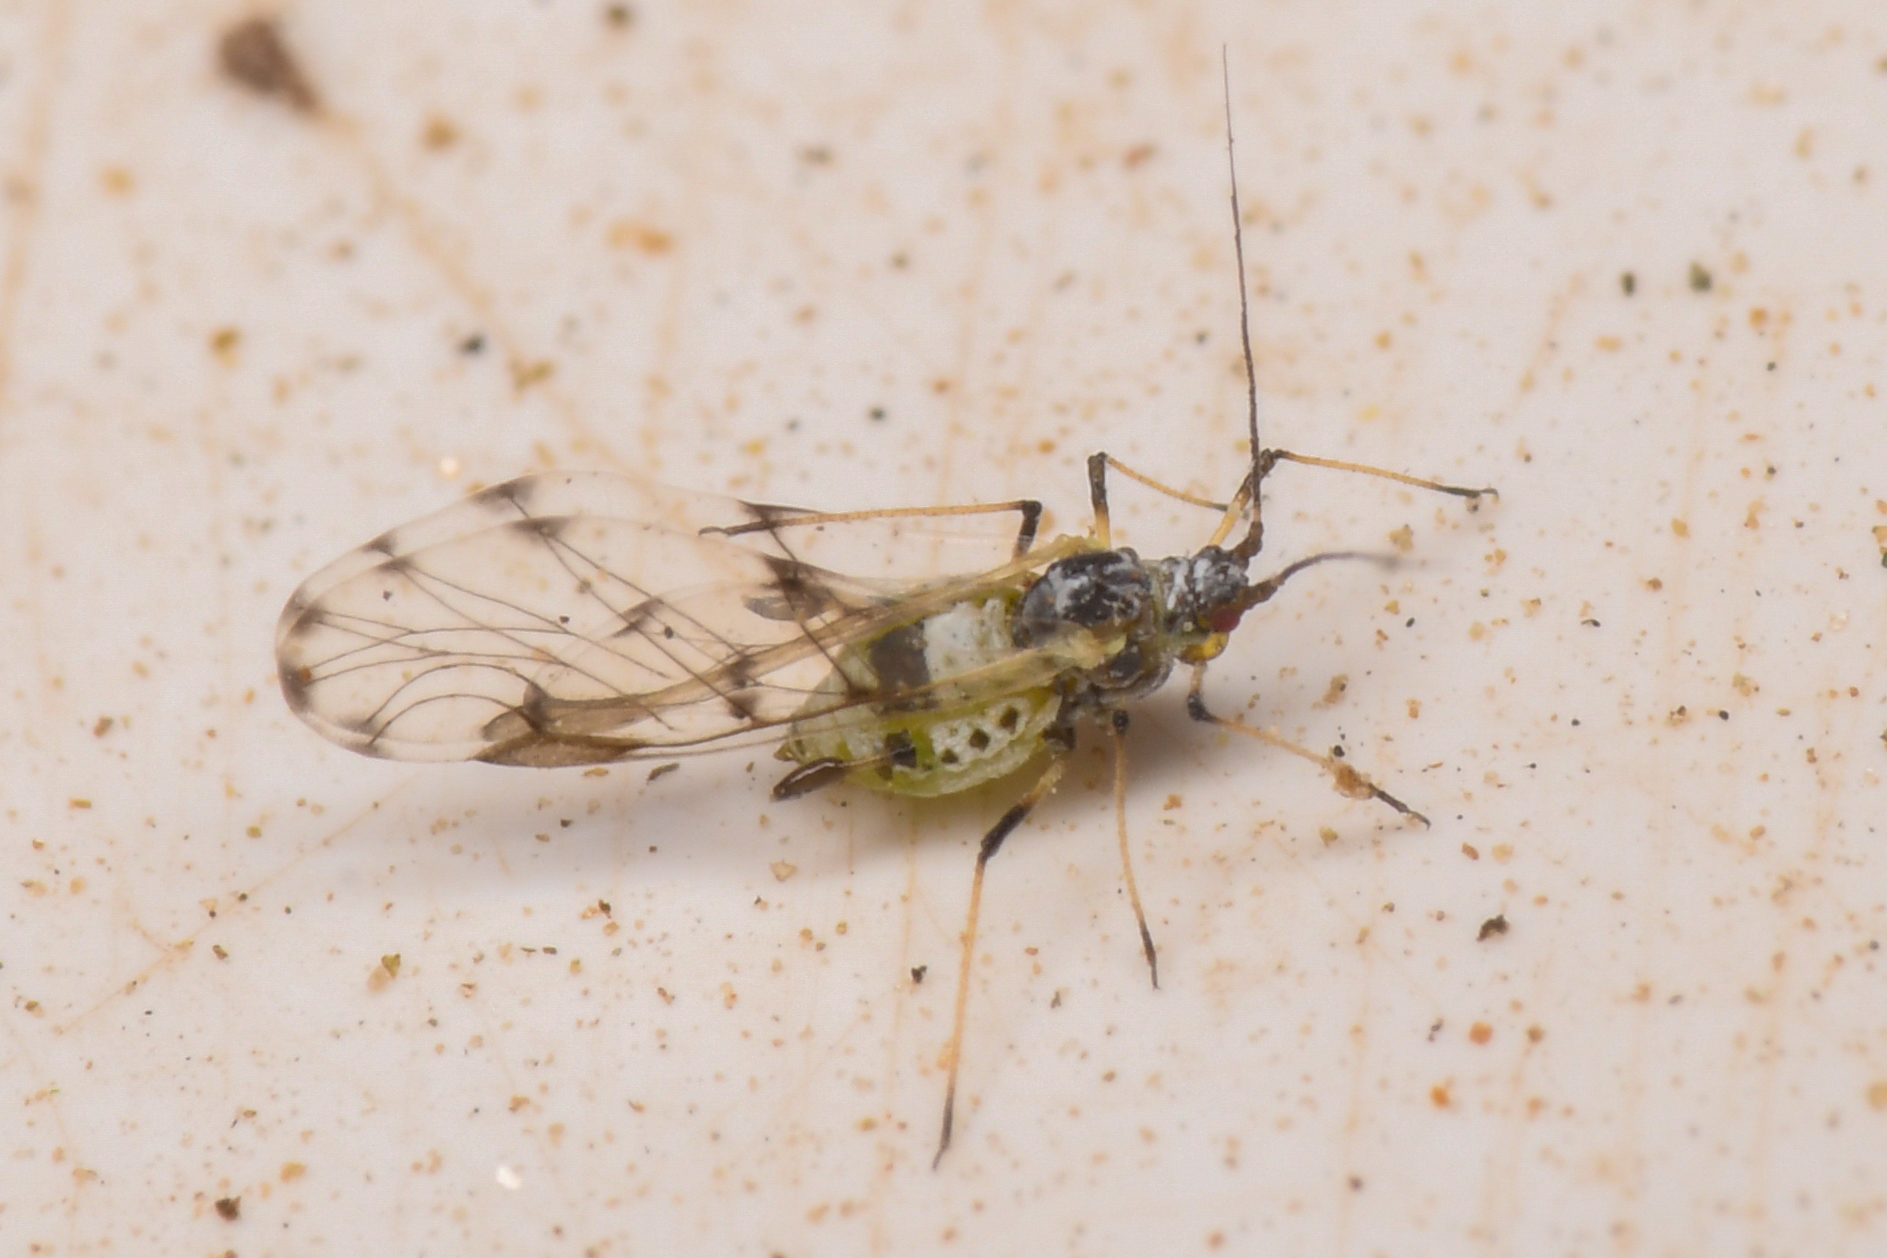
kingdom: Animalia
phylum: Arthropoda
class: Insecta
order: Hemiptera
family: Aphididae
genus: Eucarazzia
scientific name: Eucarazzia elegans
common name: Mint aphid
